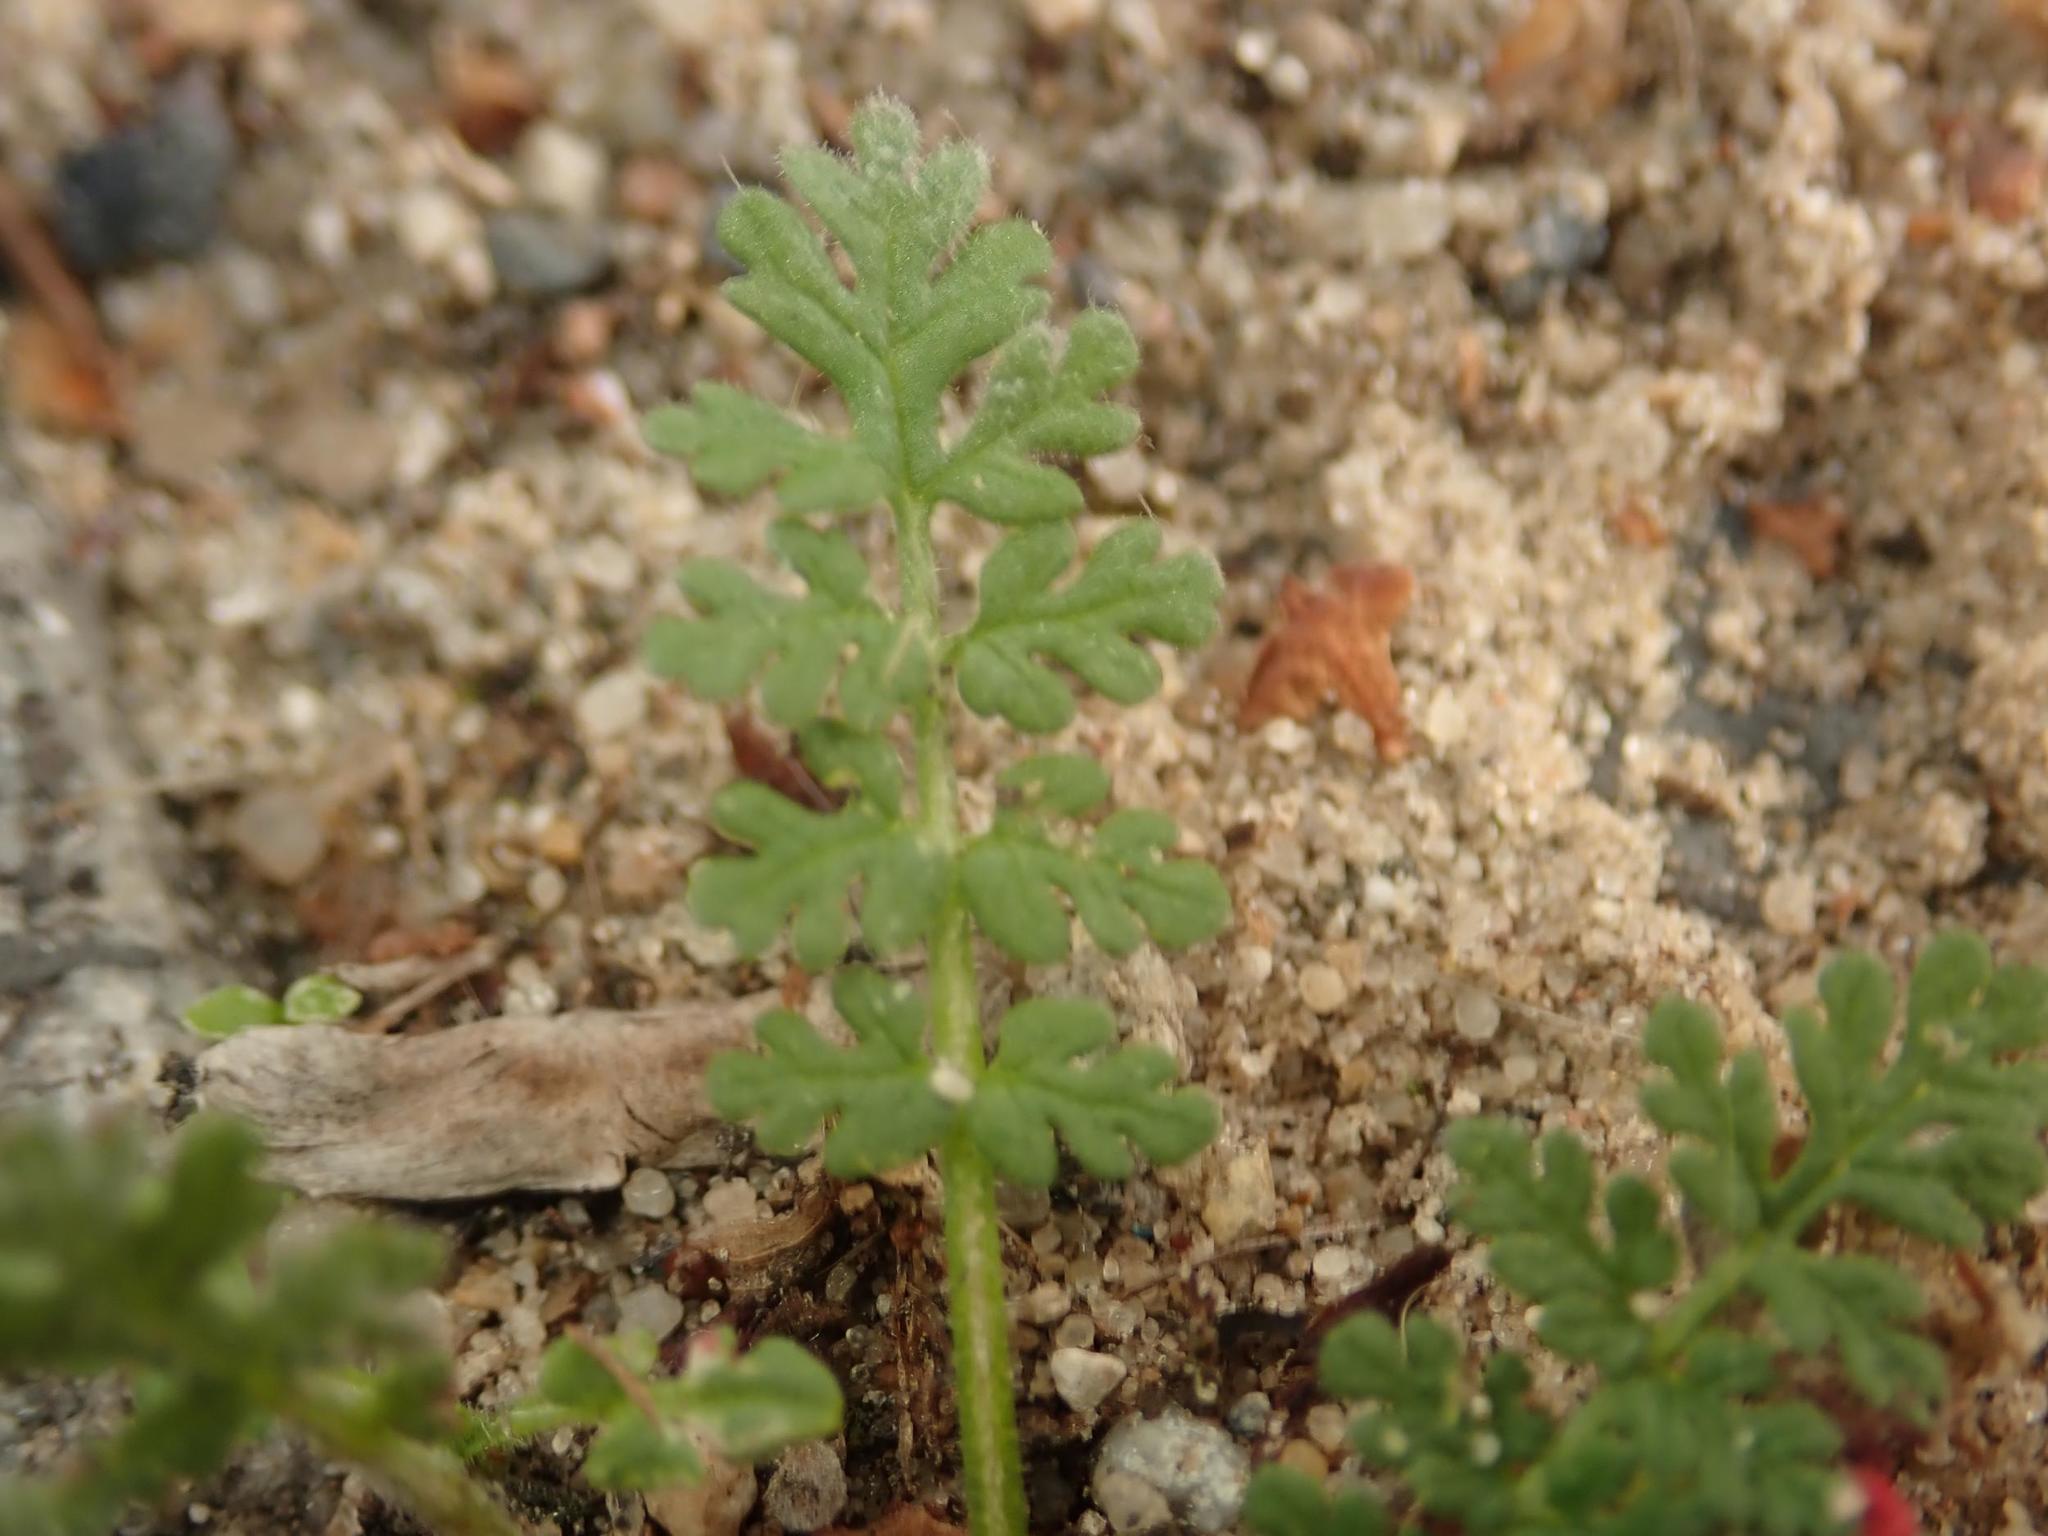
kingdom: Plantae
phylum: Tracheophyta
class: Magnoliopsida
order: Geraniales
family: Geraniaceae
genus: Erodium
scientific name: Erodium cicutarium
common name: Common stork's-bill
